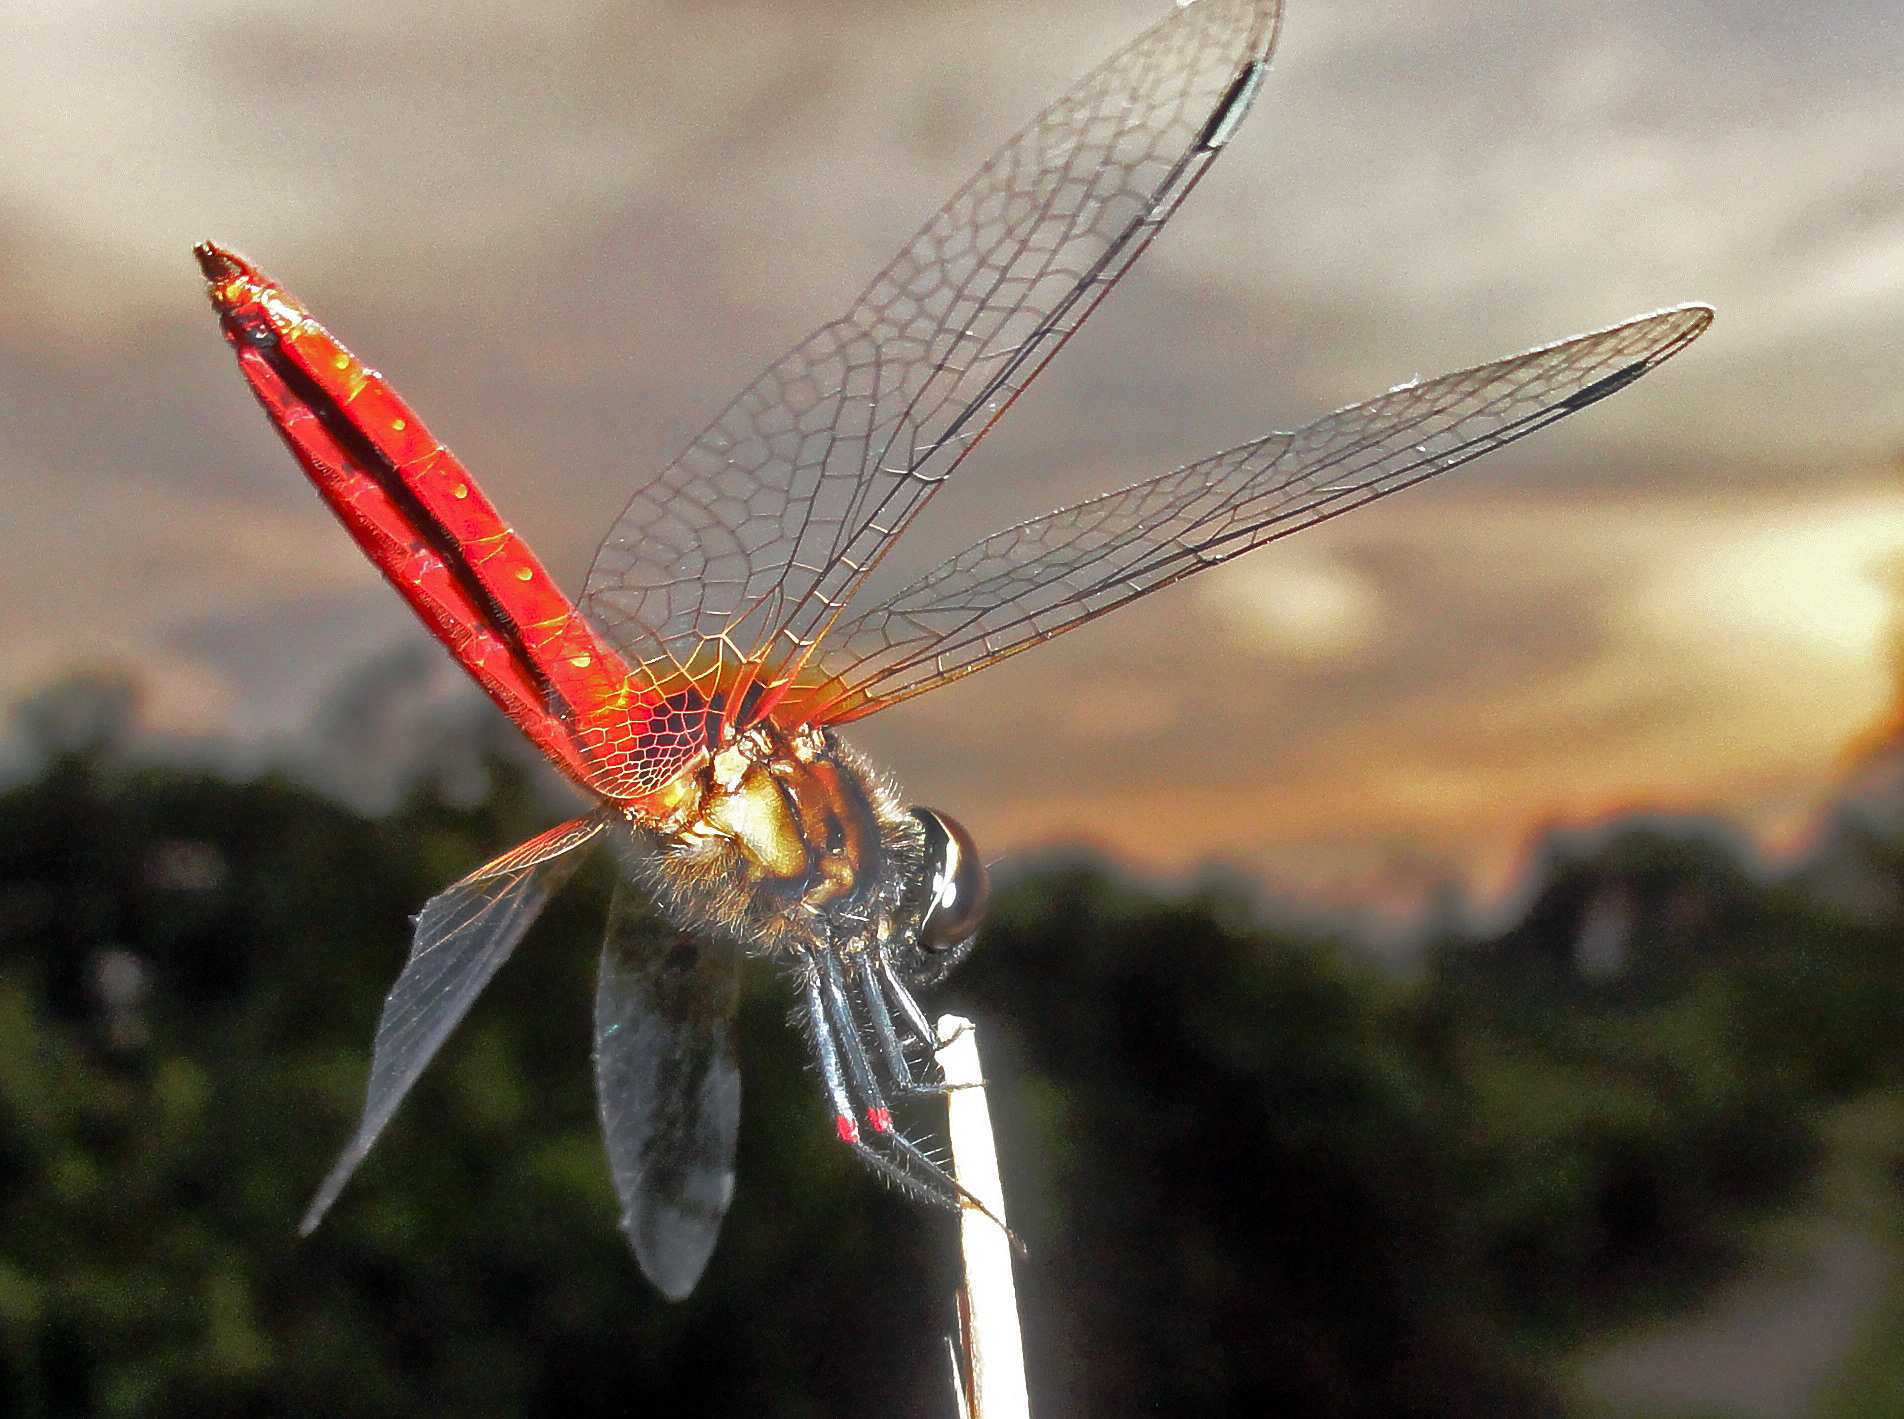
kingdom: Animalia
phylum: Arthropoda
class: Insecta
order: Odonata
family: Libellulidae
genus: Aethriamanta
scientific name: Aethriamanta brevipennis
